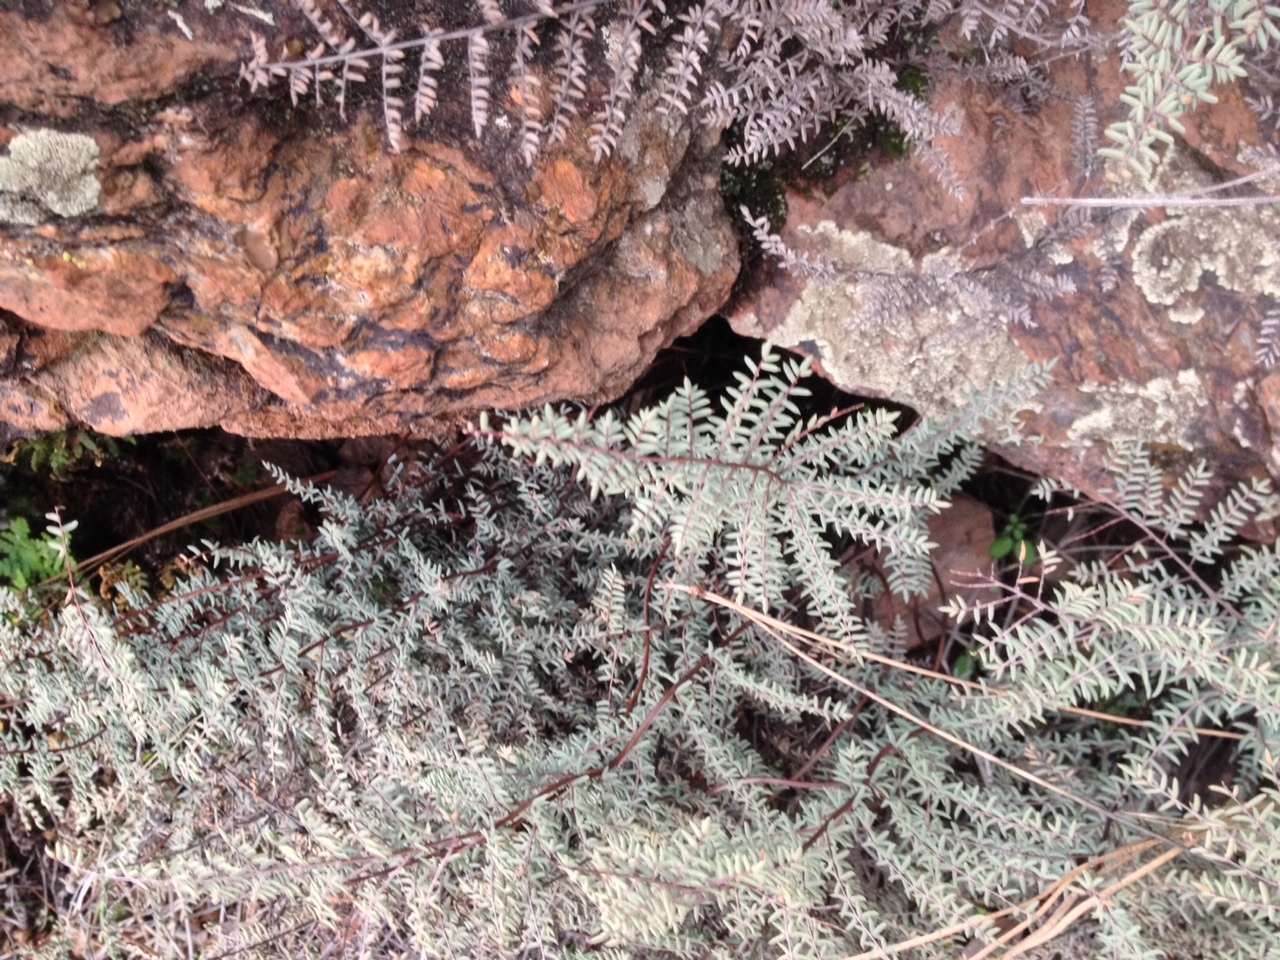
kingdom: Plantae
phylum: Tracheophyta
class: Polypodiopsida
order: Polypodiales
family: Pteridaceae
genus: Pellaea
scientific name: Pellaea mucronata
